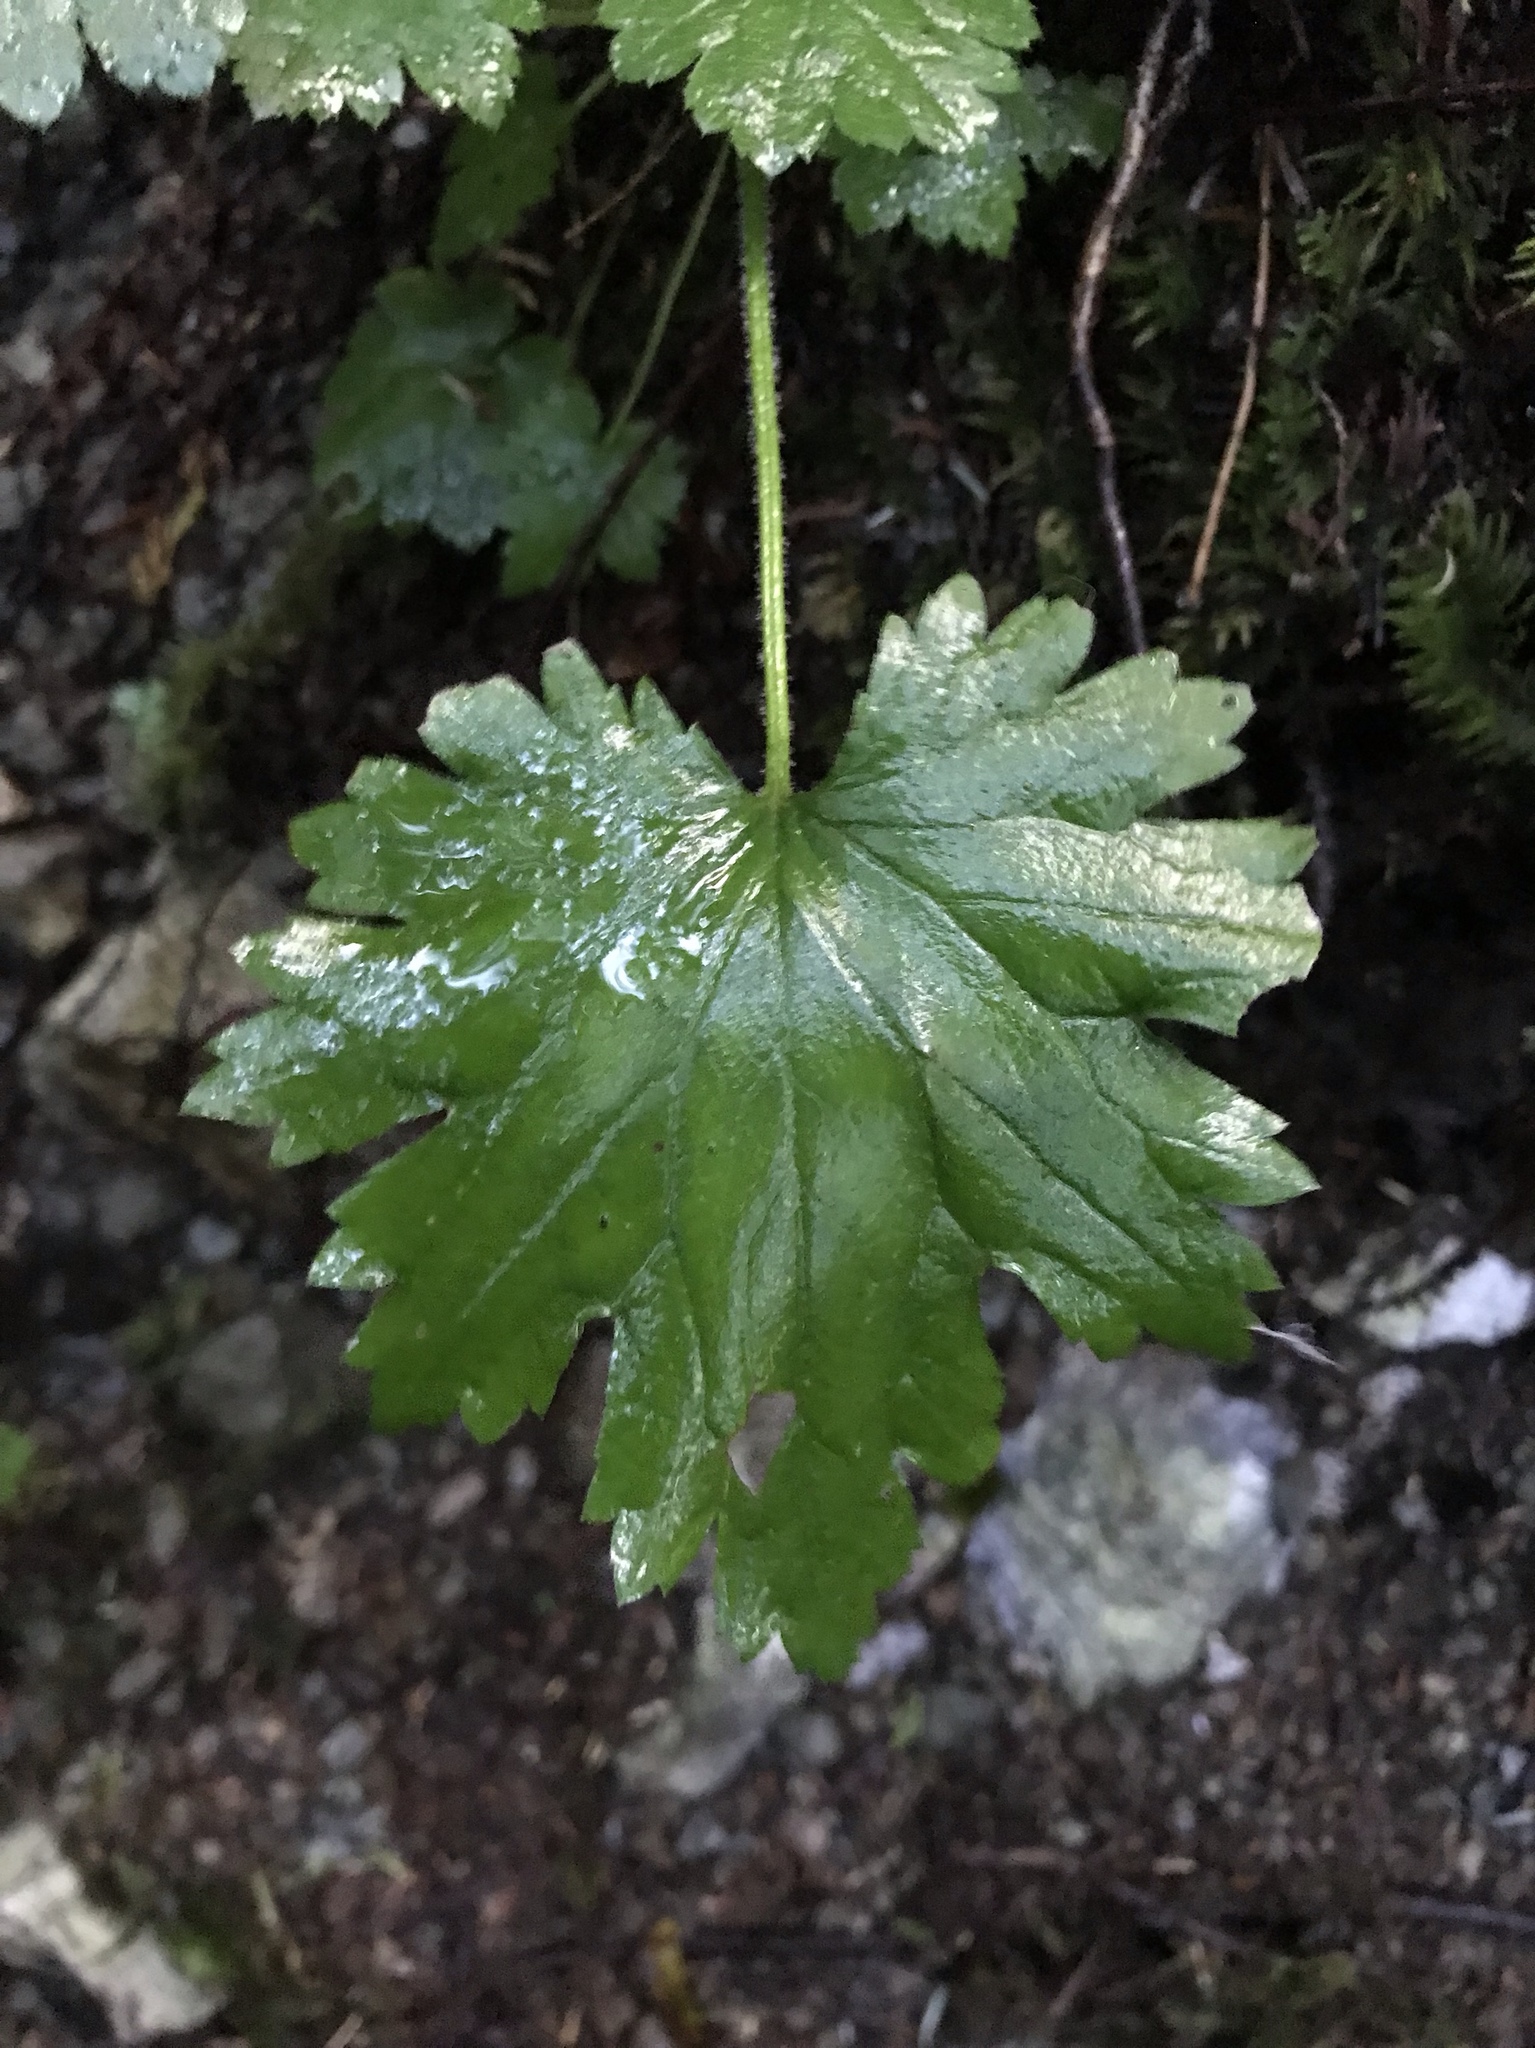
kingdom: Plantae
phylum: Tracheophyta
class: Magnoliopsida
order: Saxifragales
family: Saxifragaceae
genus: Boykinia
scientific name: Boykinia occidentalis
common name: Coast boykinia
